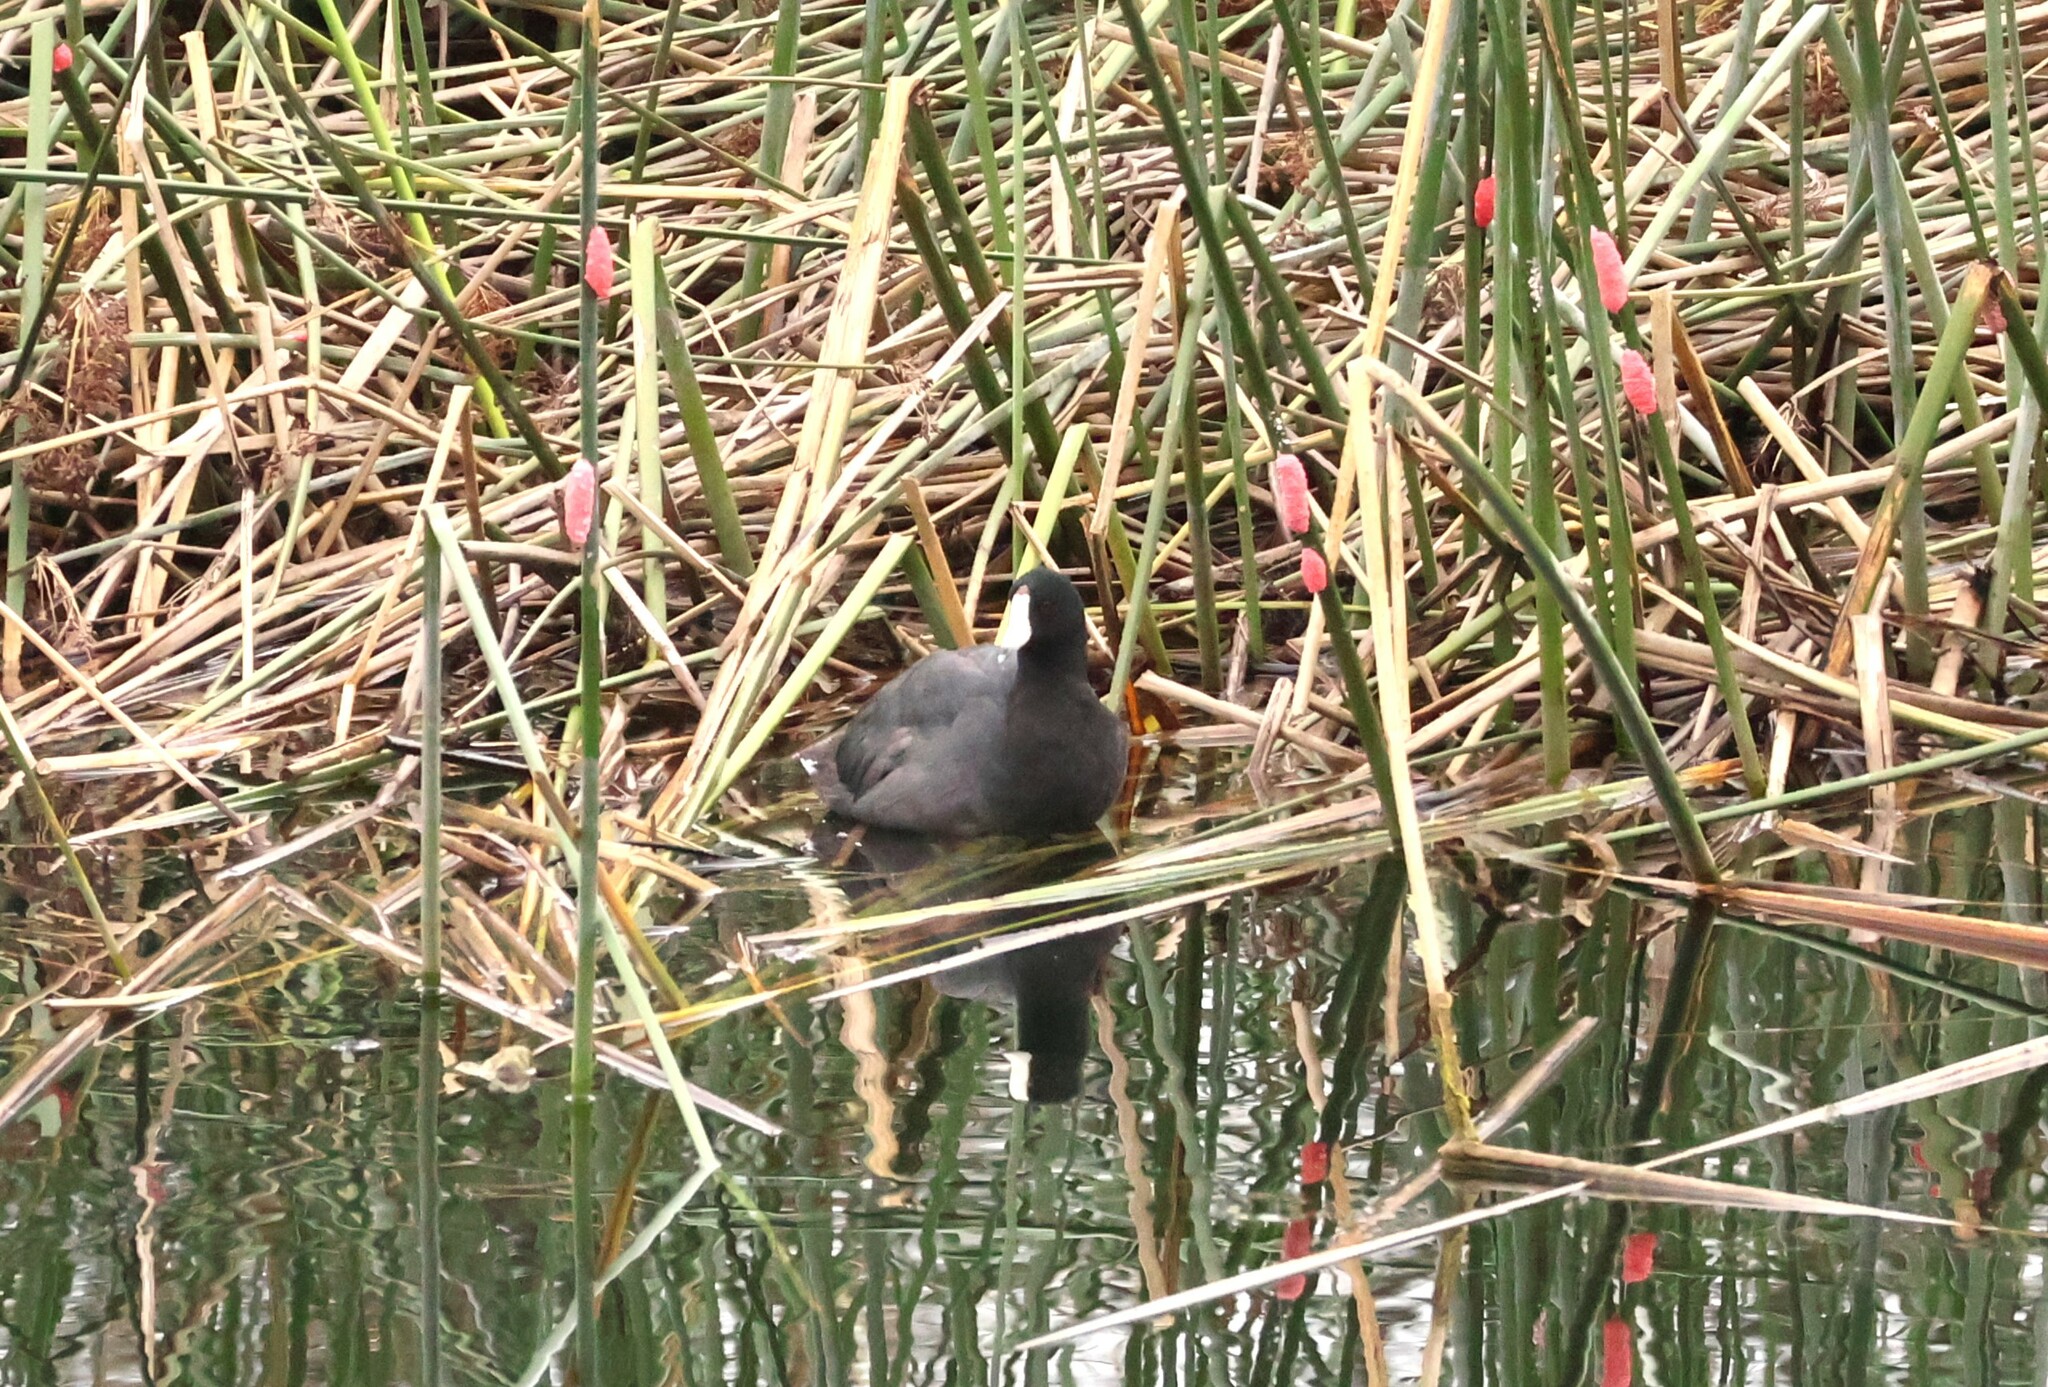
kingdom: Animalia
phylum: Chordata
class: Aves
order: Gruiformes
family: Rallidae
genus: Fulica
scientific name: Fulica americana
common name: American coot
